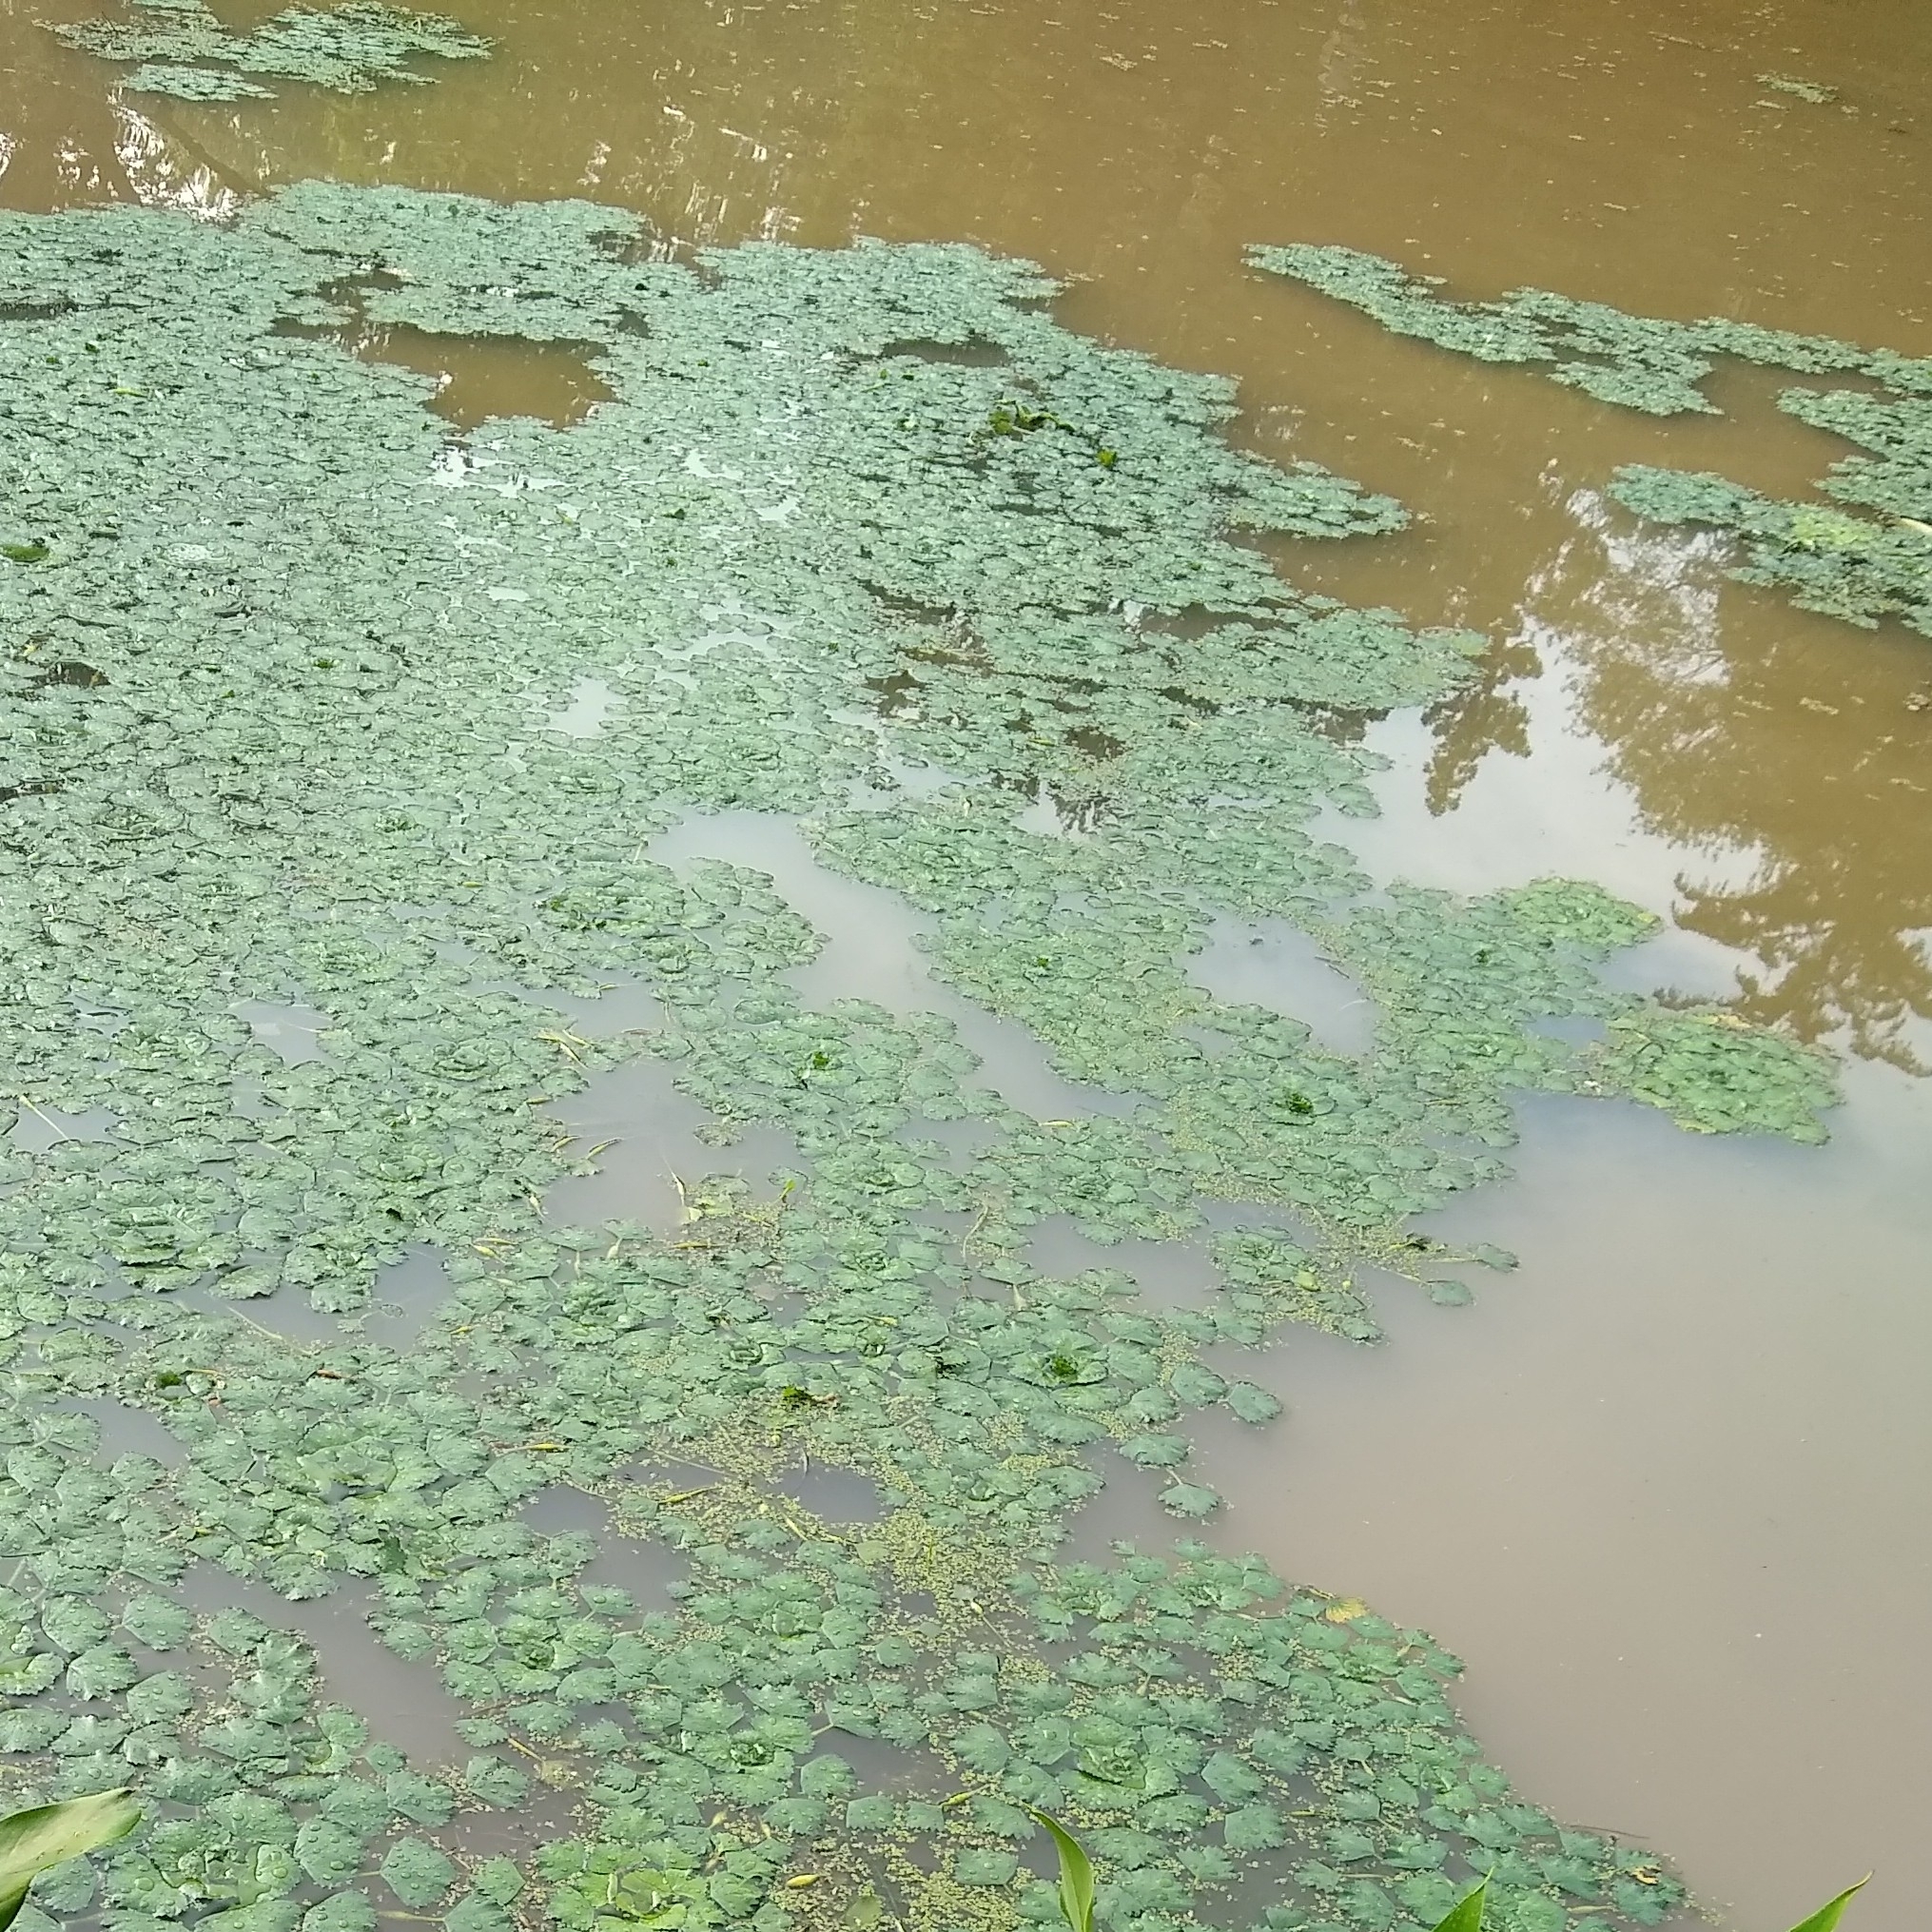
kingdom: Plantae
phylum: Tracheophyta
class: Magnoliopsida
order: Myrtales
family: Lythraceae
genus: Trapa
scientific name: Trapa natans
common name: Water chestnut
